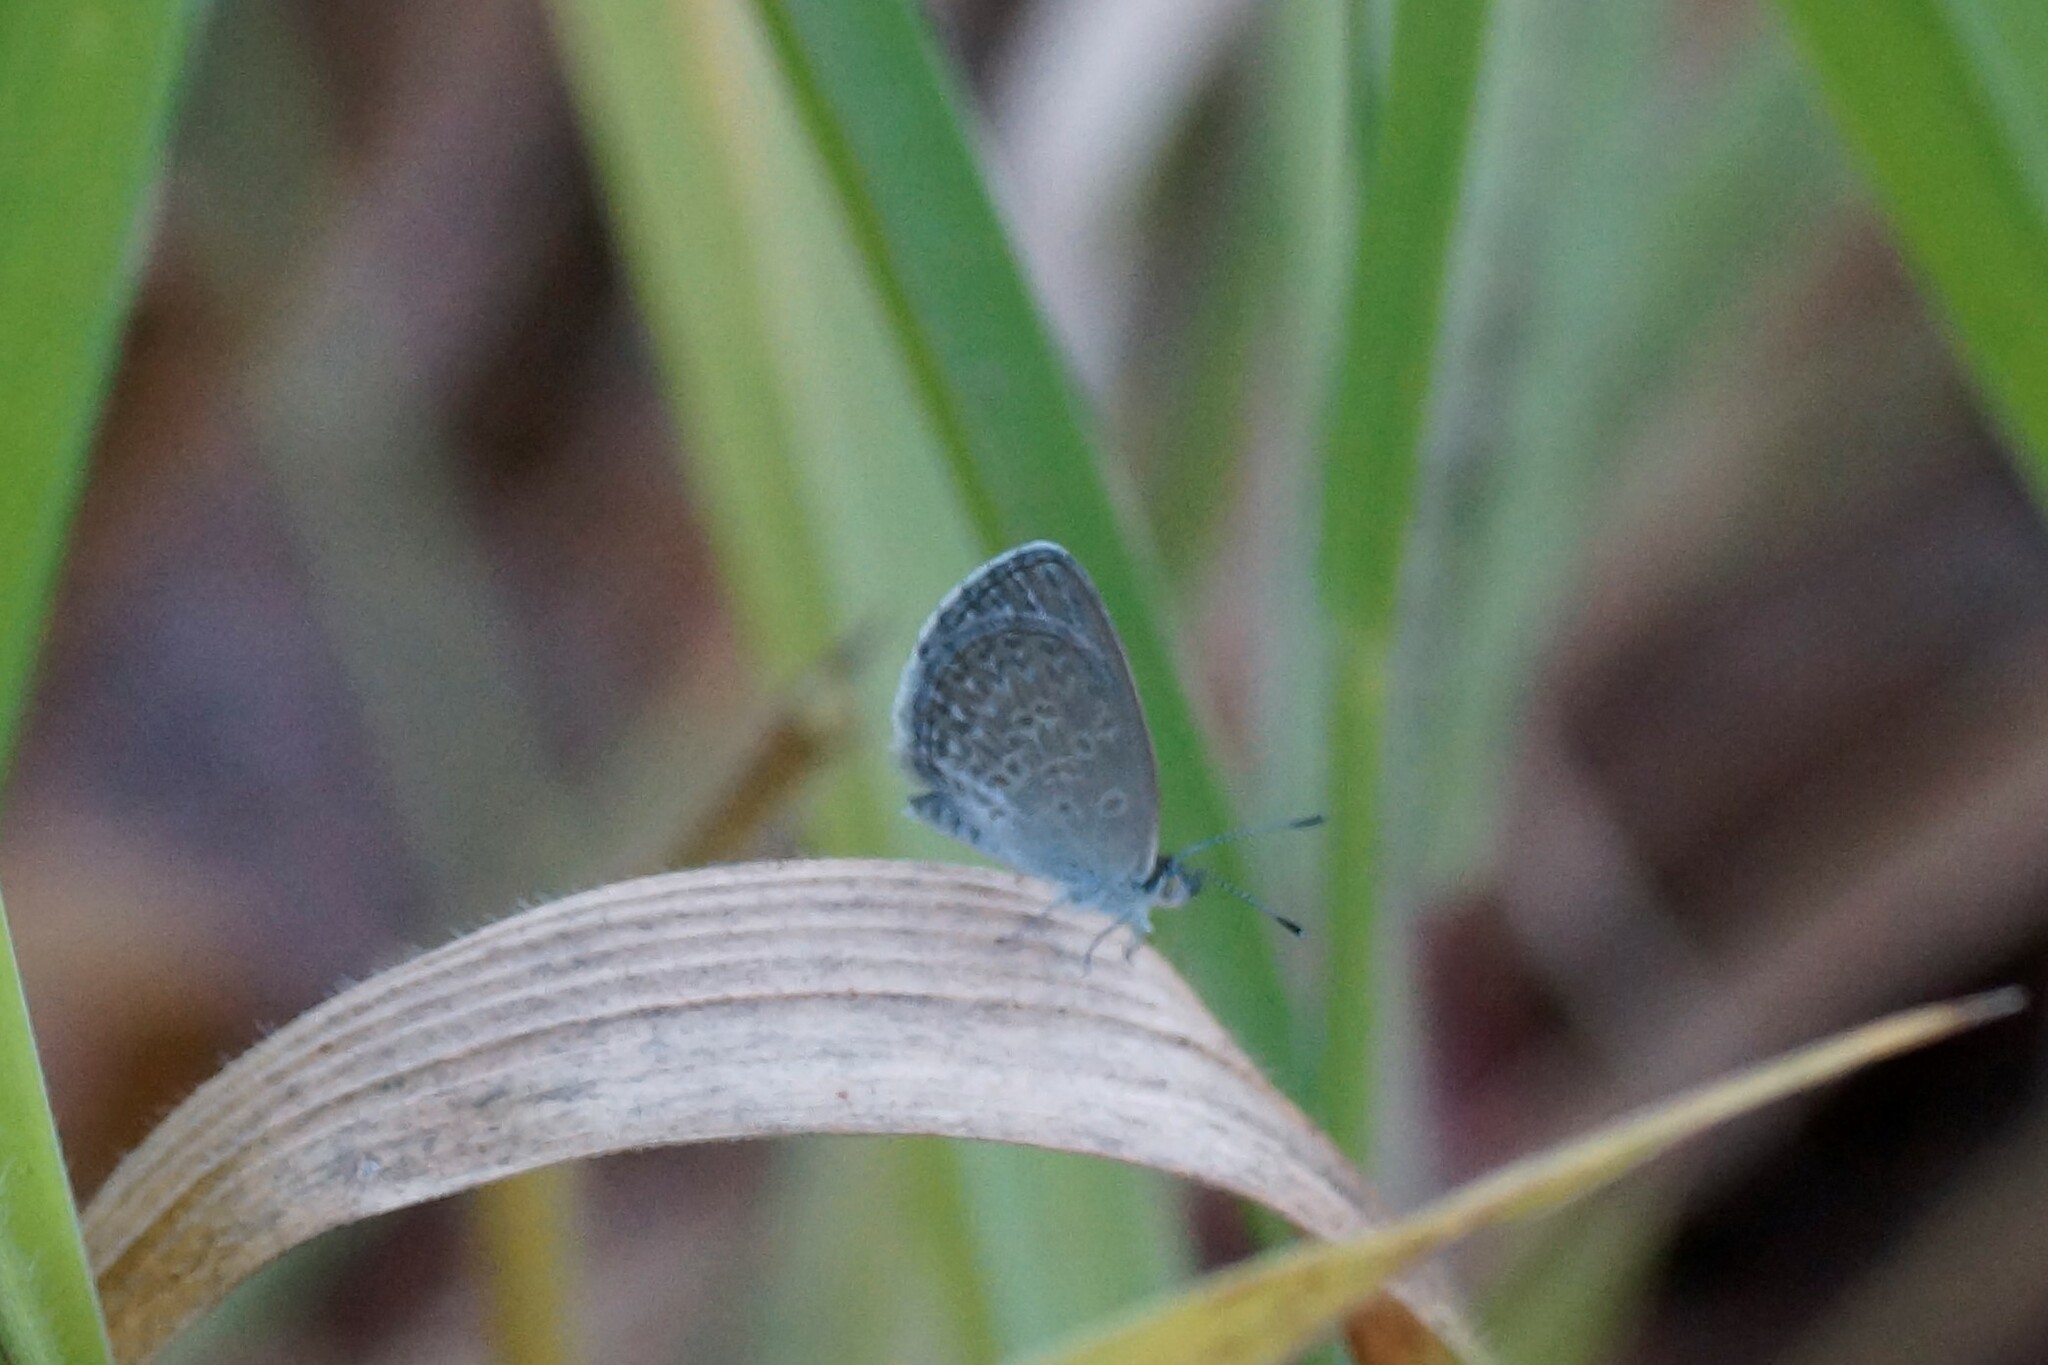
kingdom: Animalia
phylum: Arthropoda
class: Insecta
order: Lepidoptera
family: Lycaenidae
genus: Zizina
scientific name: Zizina otis
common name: Lesser grass blue
